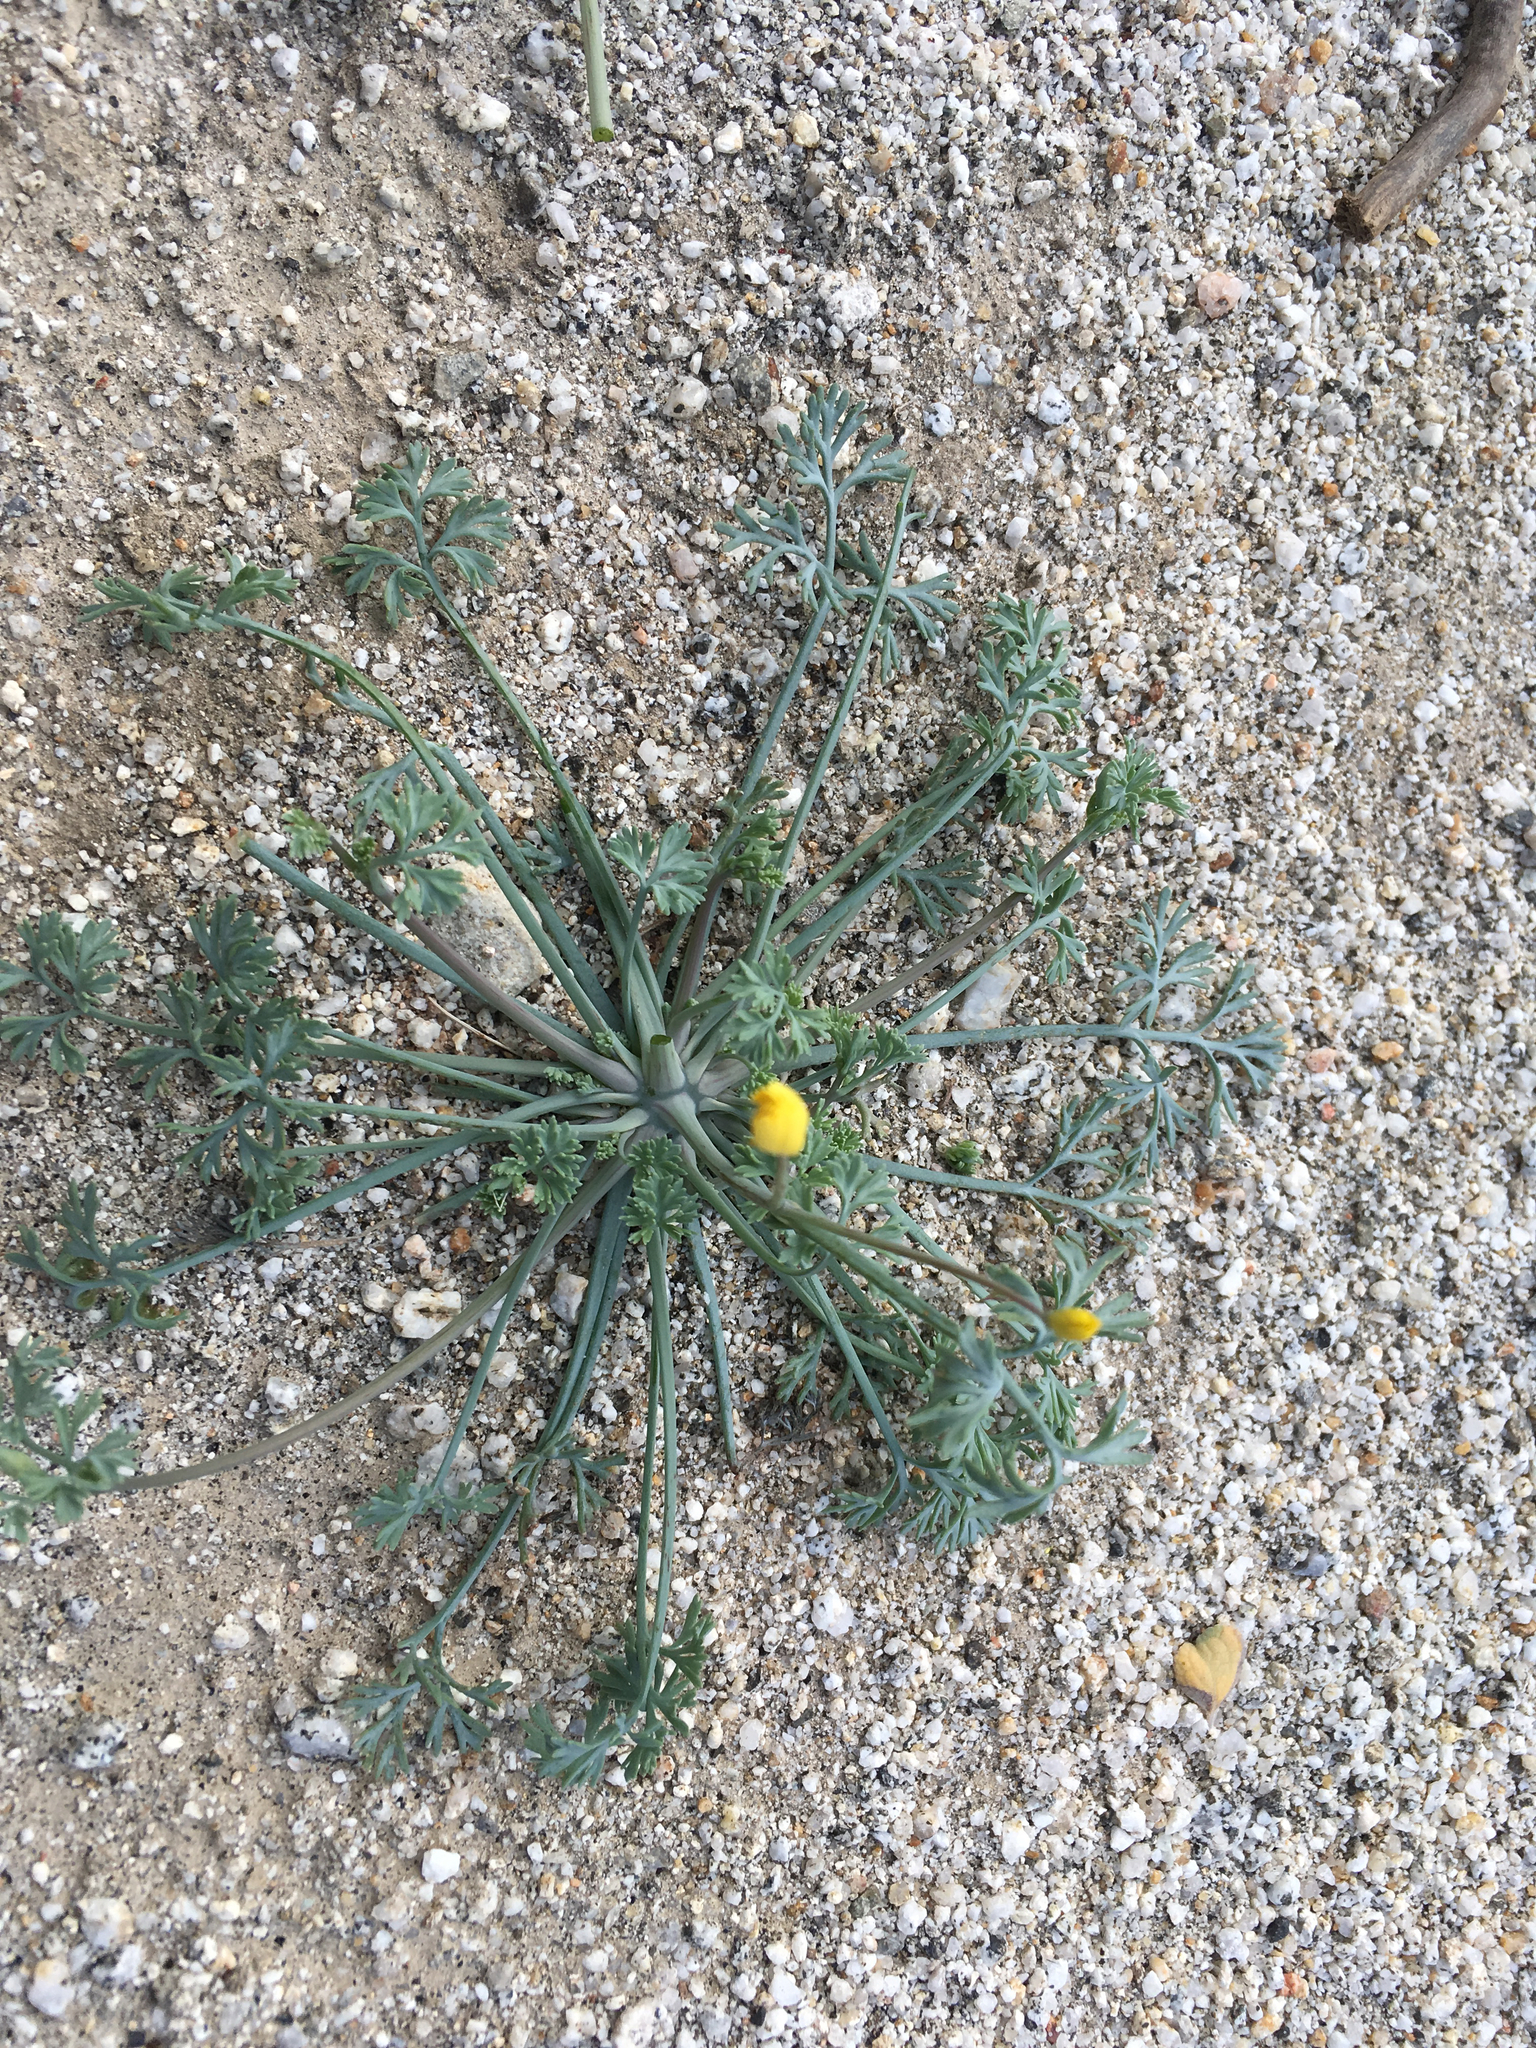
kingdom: Plantae
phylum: Tracheophyta
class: Magnoliopsida
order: Ranunculales
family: Papaveraceae
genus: Eschscholzia
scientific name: Eschscholzia parishii
